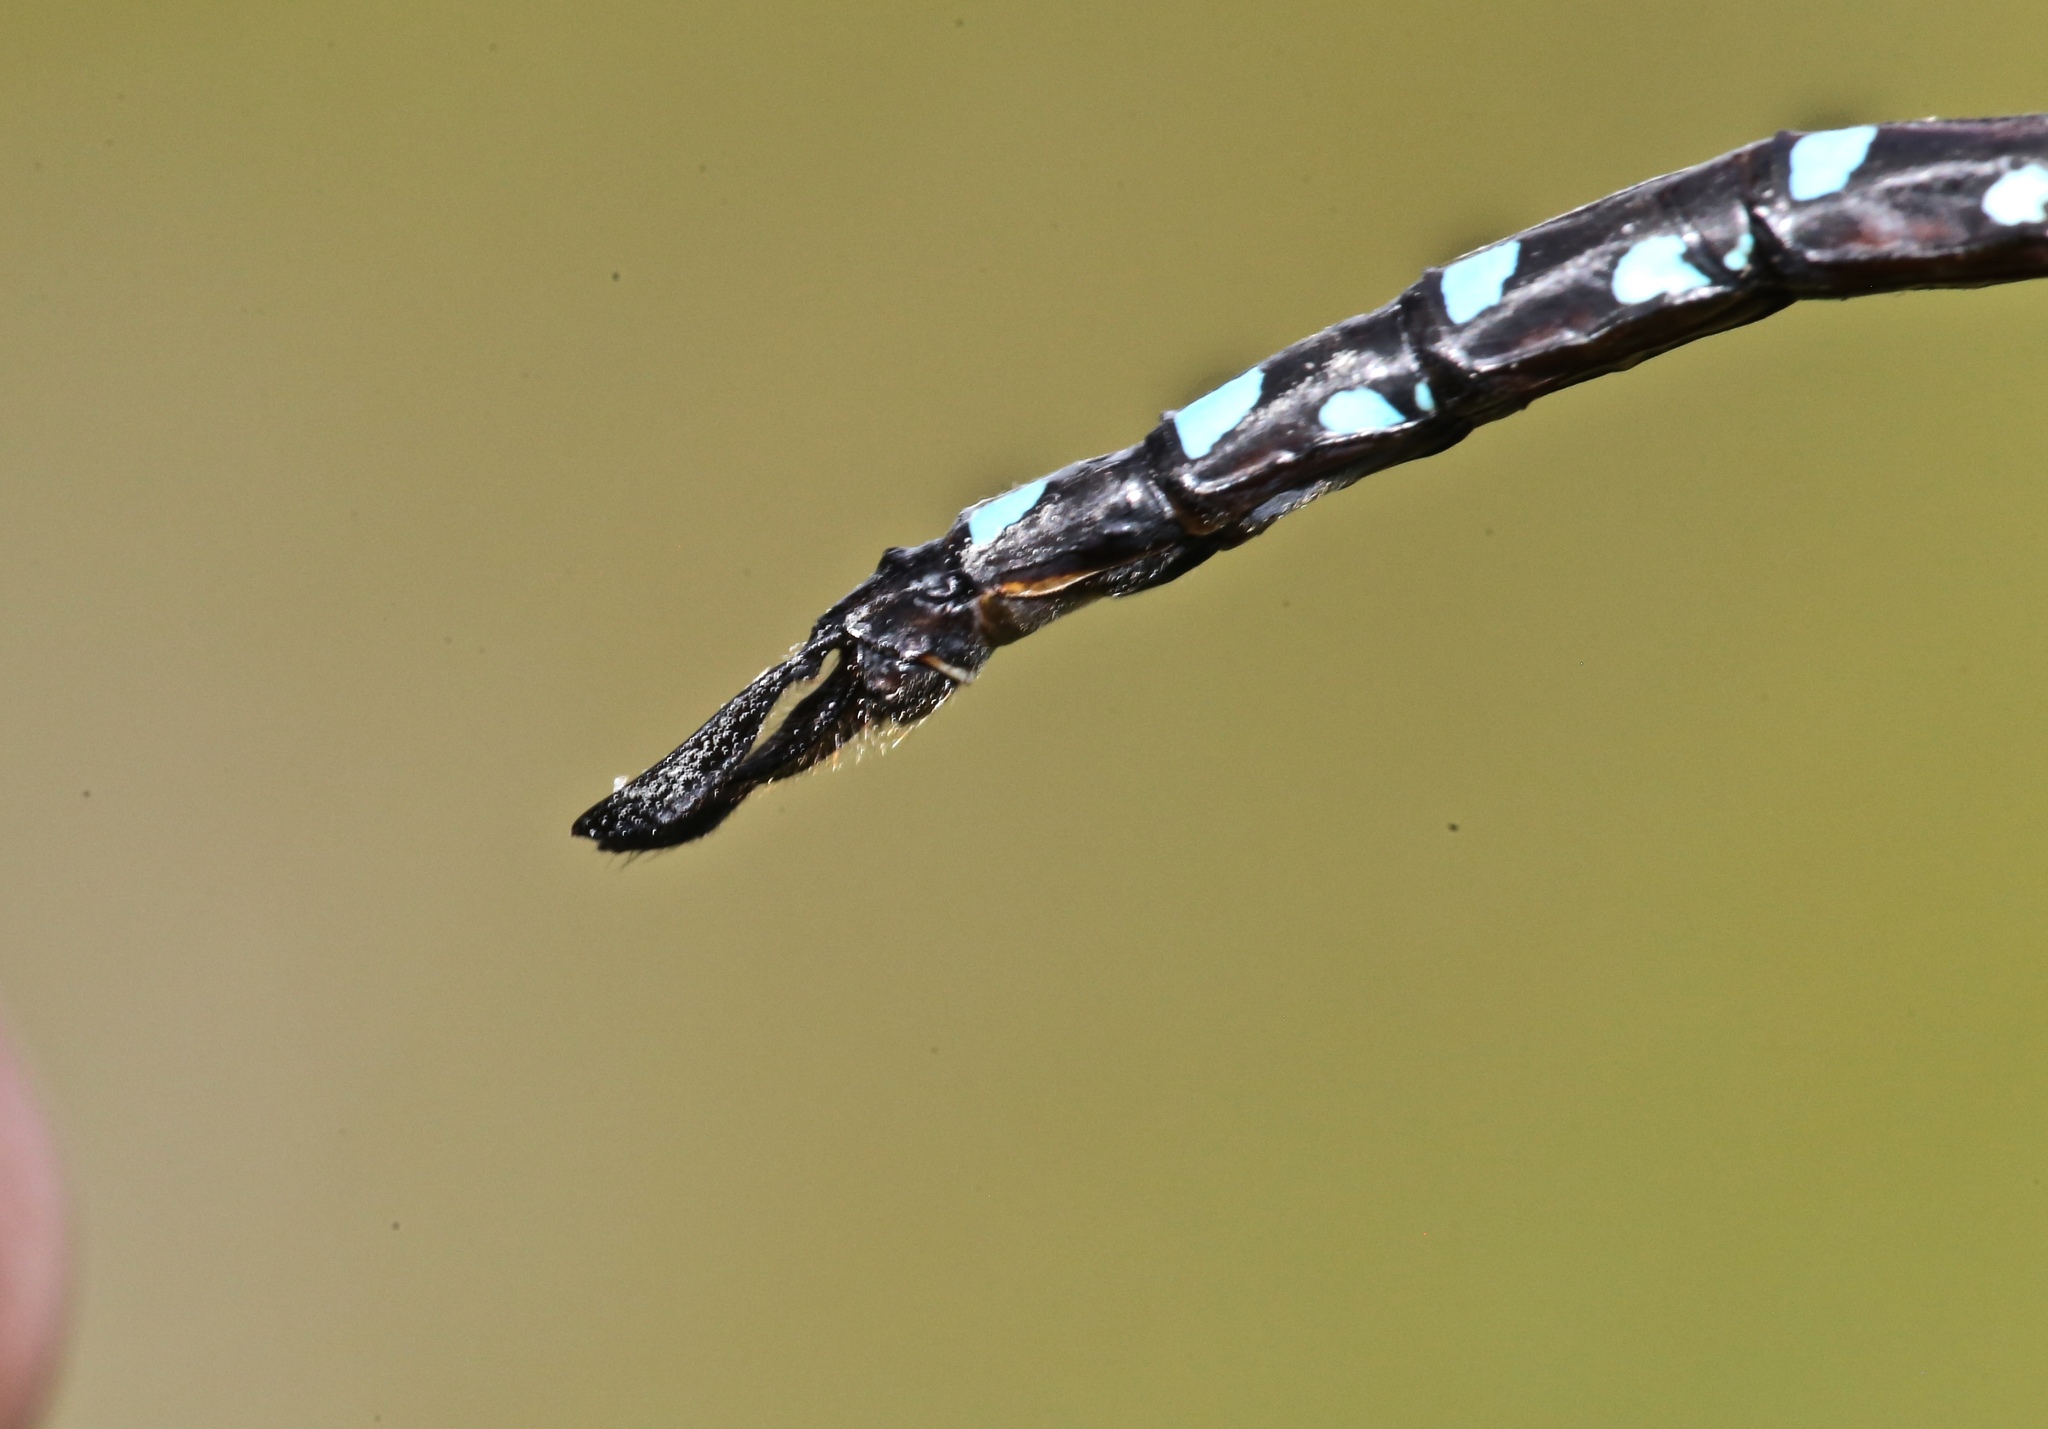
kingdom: Animalia
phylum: Arthropoda
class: Insecta
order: Odonata
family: Aeshnidae
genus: Aeshna
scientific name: Aeshna tuberculifera
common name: Aeschne à tubercules
